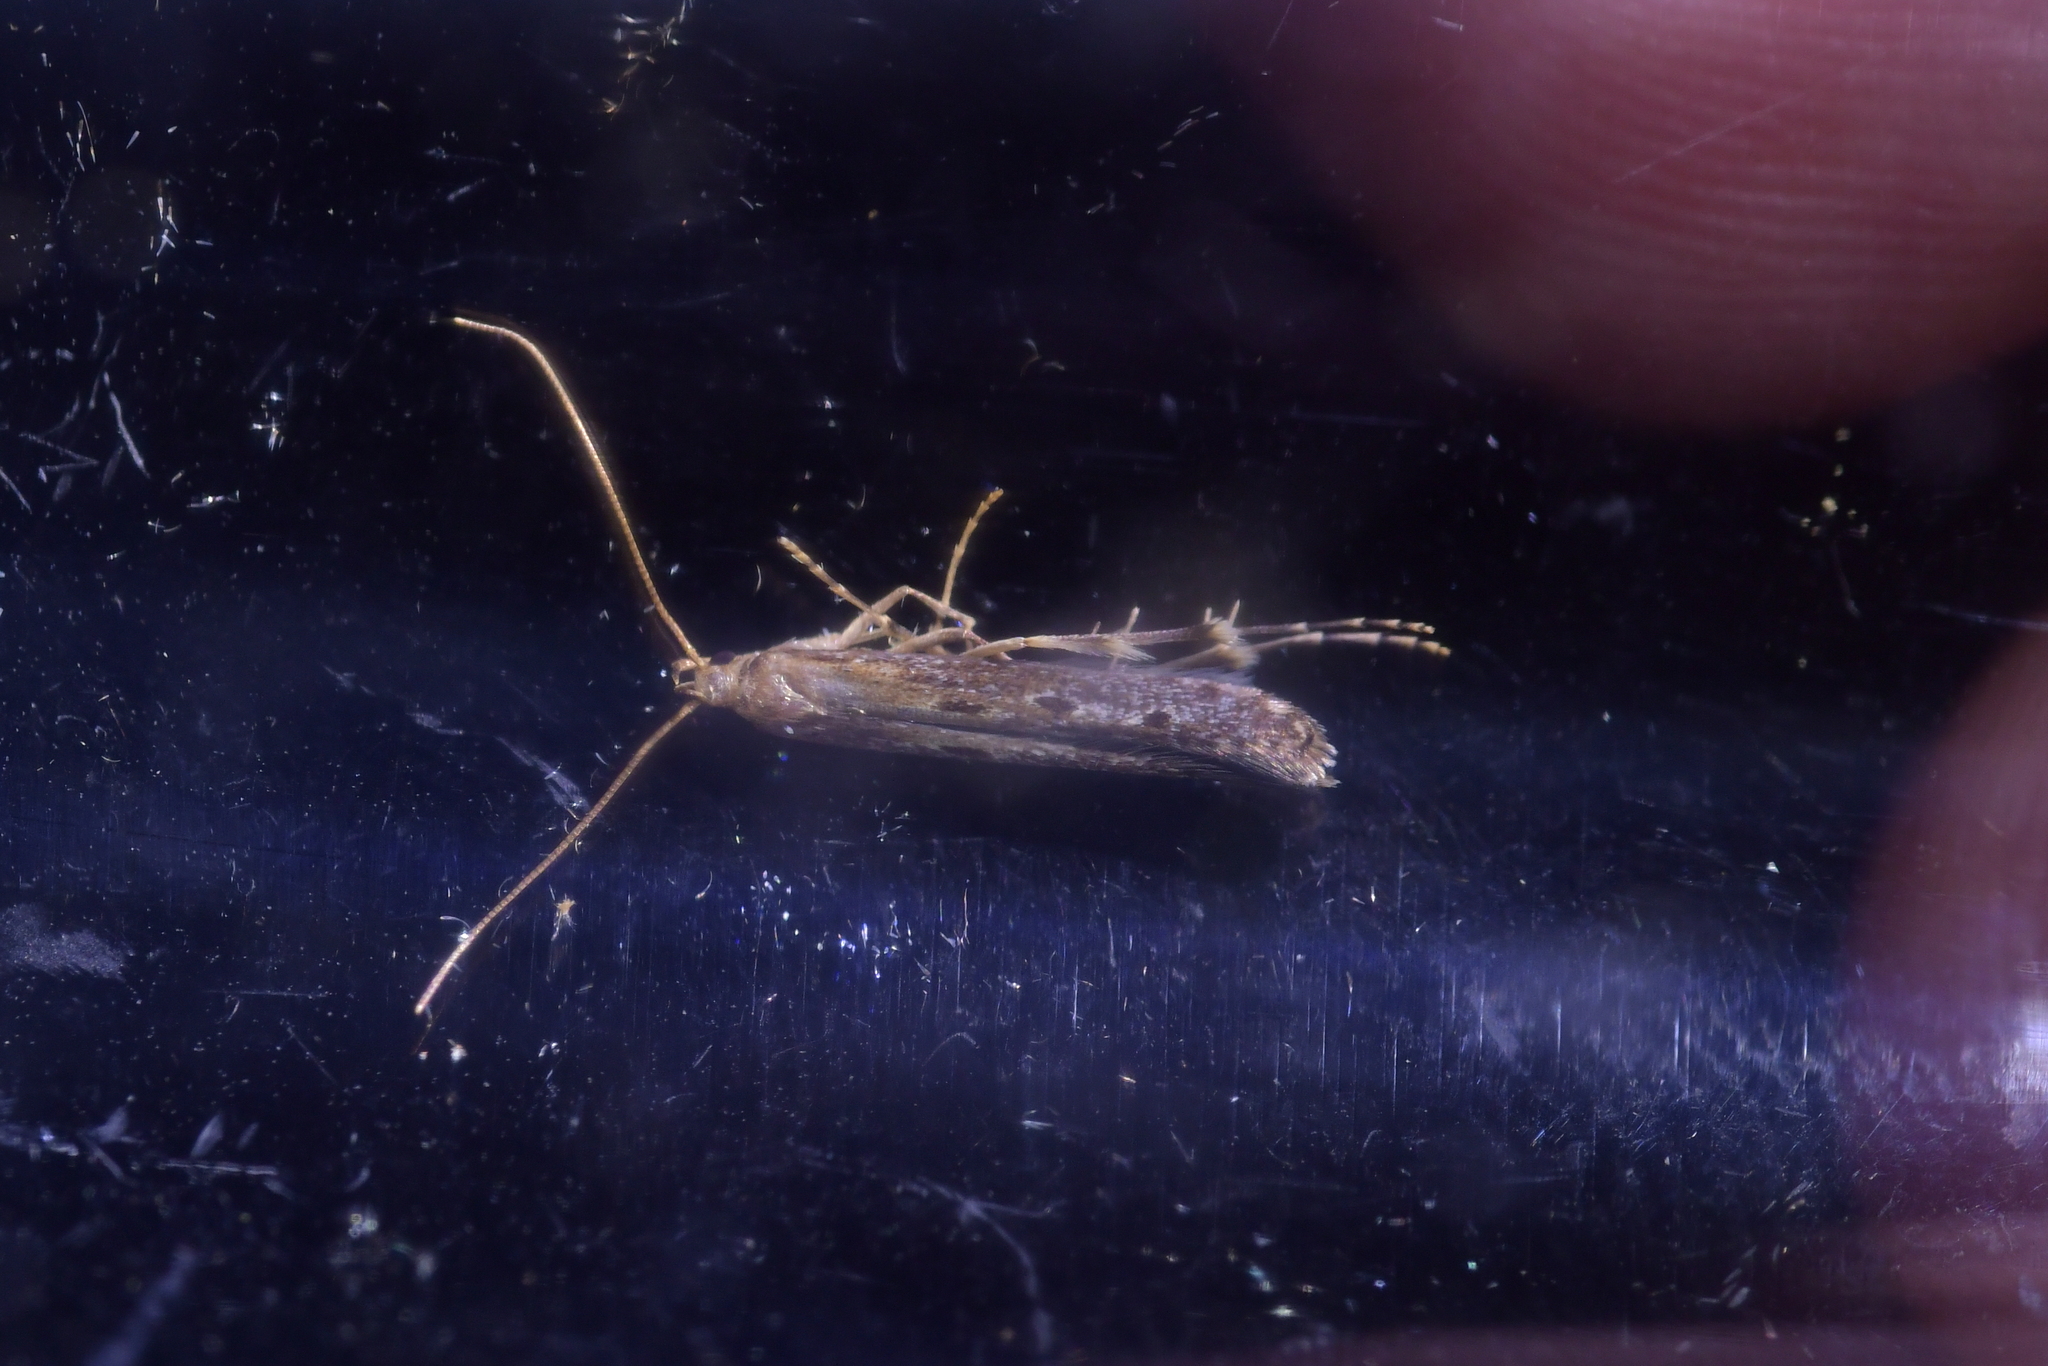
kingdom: Animalia
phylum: Arthropoda
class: Insecta
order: Lepidoptera
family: Batrachedridae
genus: Batrachedra
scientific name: Batrachedra agaura
